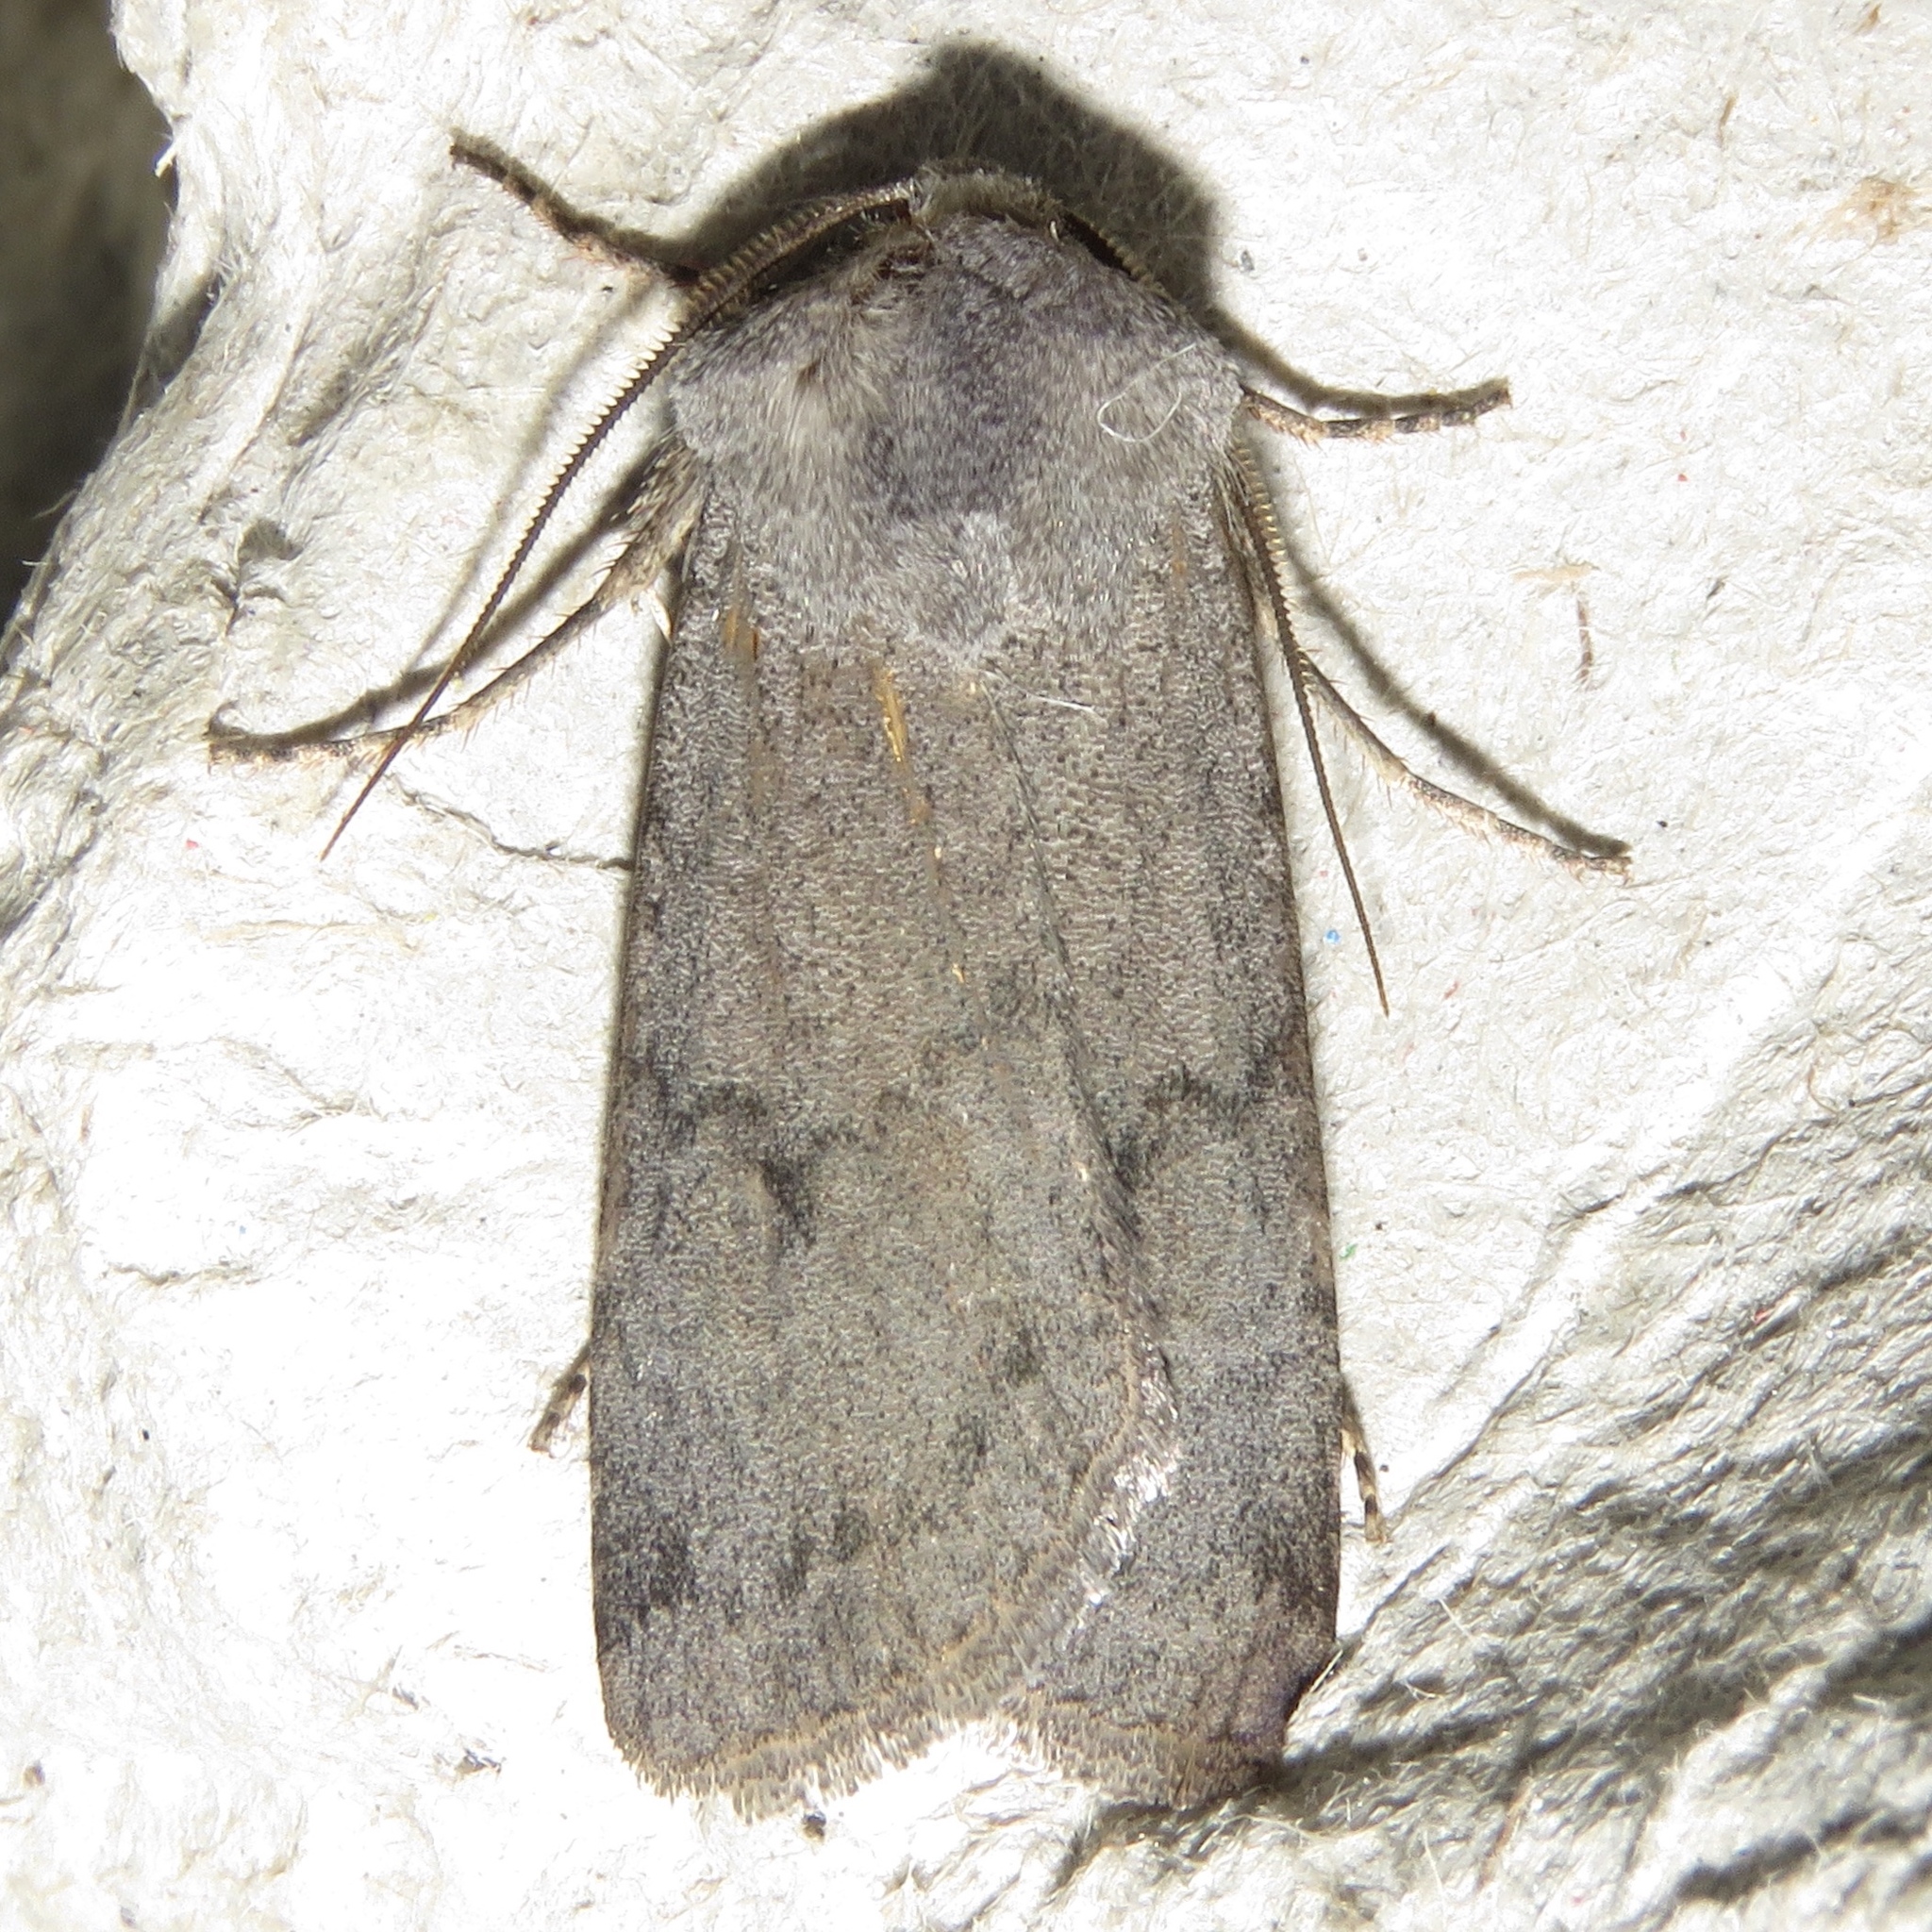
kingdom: Animalia
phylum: Arthropoda
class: Insecta
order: Lepidoptera
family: Noctuidae
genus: Euxoa
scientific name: Euxoa bostoniensis
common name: Boston dart
